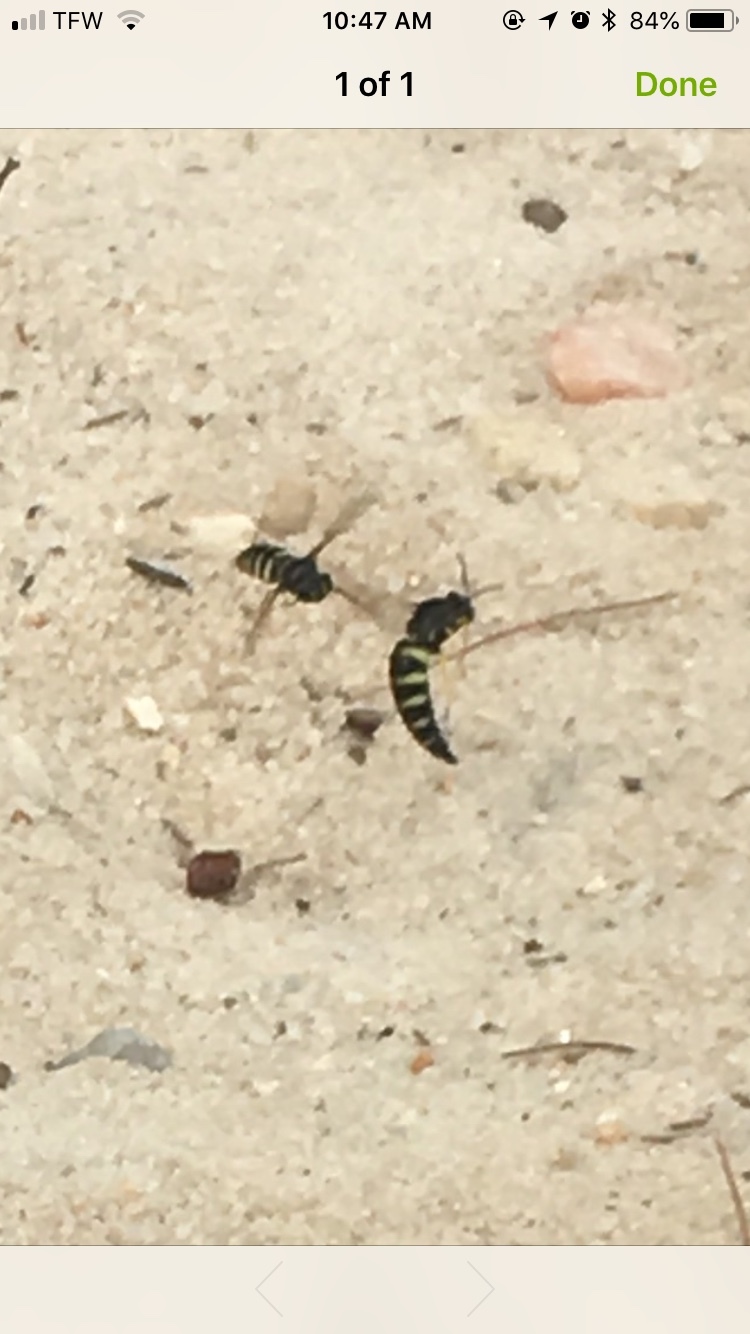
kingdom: Animalia
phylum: Arthropoda
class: Insecta
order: Hymenoptera
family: Crabronidae
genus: Bicyrtes
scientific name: Bicyrtes quadrifasciatus
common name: Four-banded stink bug hunter wasp
